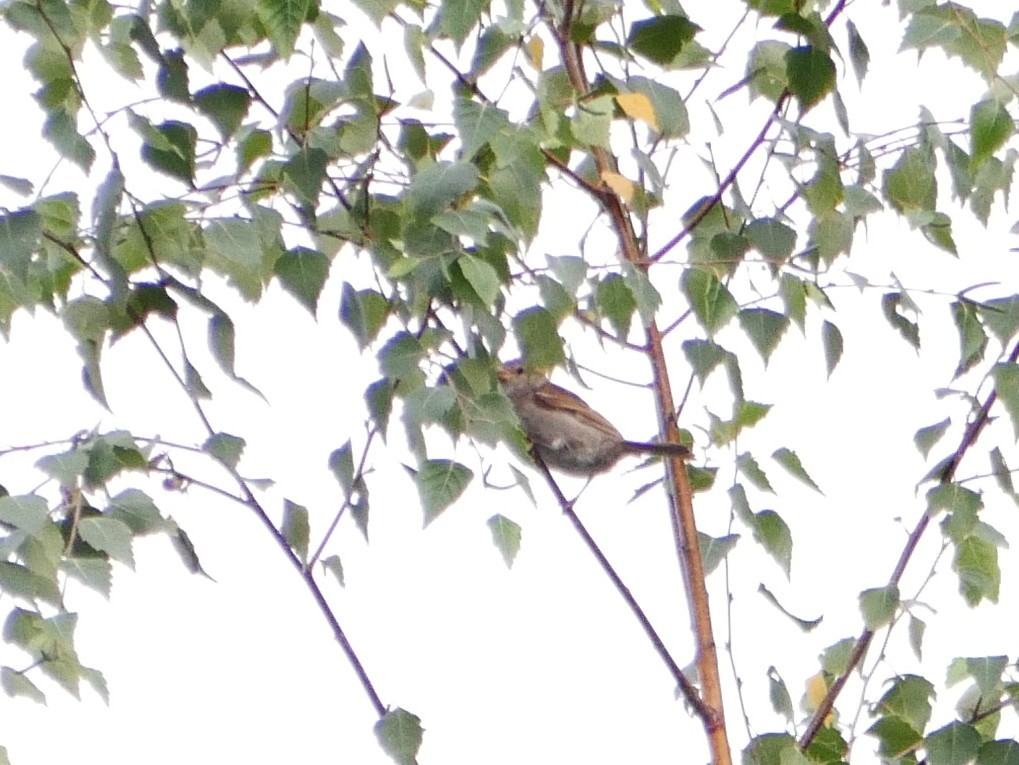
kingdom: Animalia
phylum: Chordata
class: Aves
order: Passeriformes
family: Passeridae
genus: Passer
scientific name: Passer domesticus
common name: House sparrow
